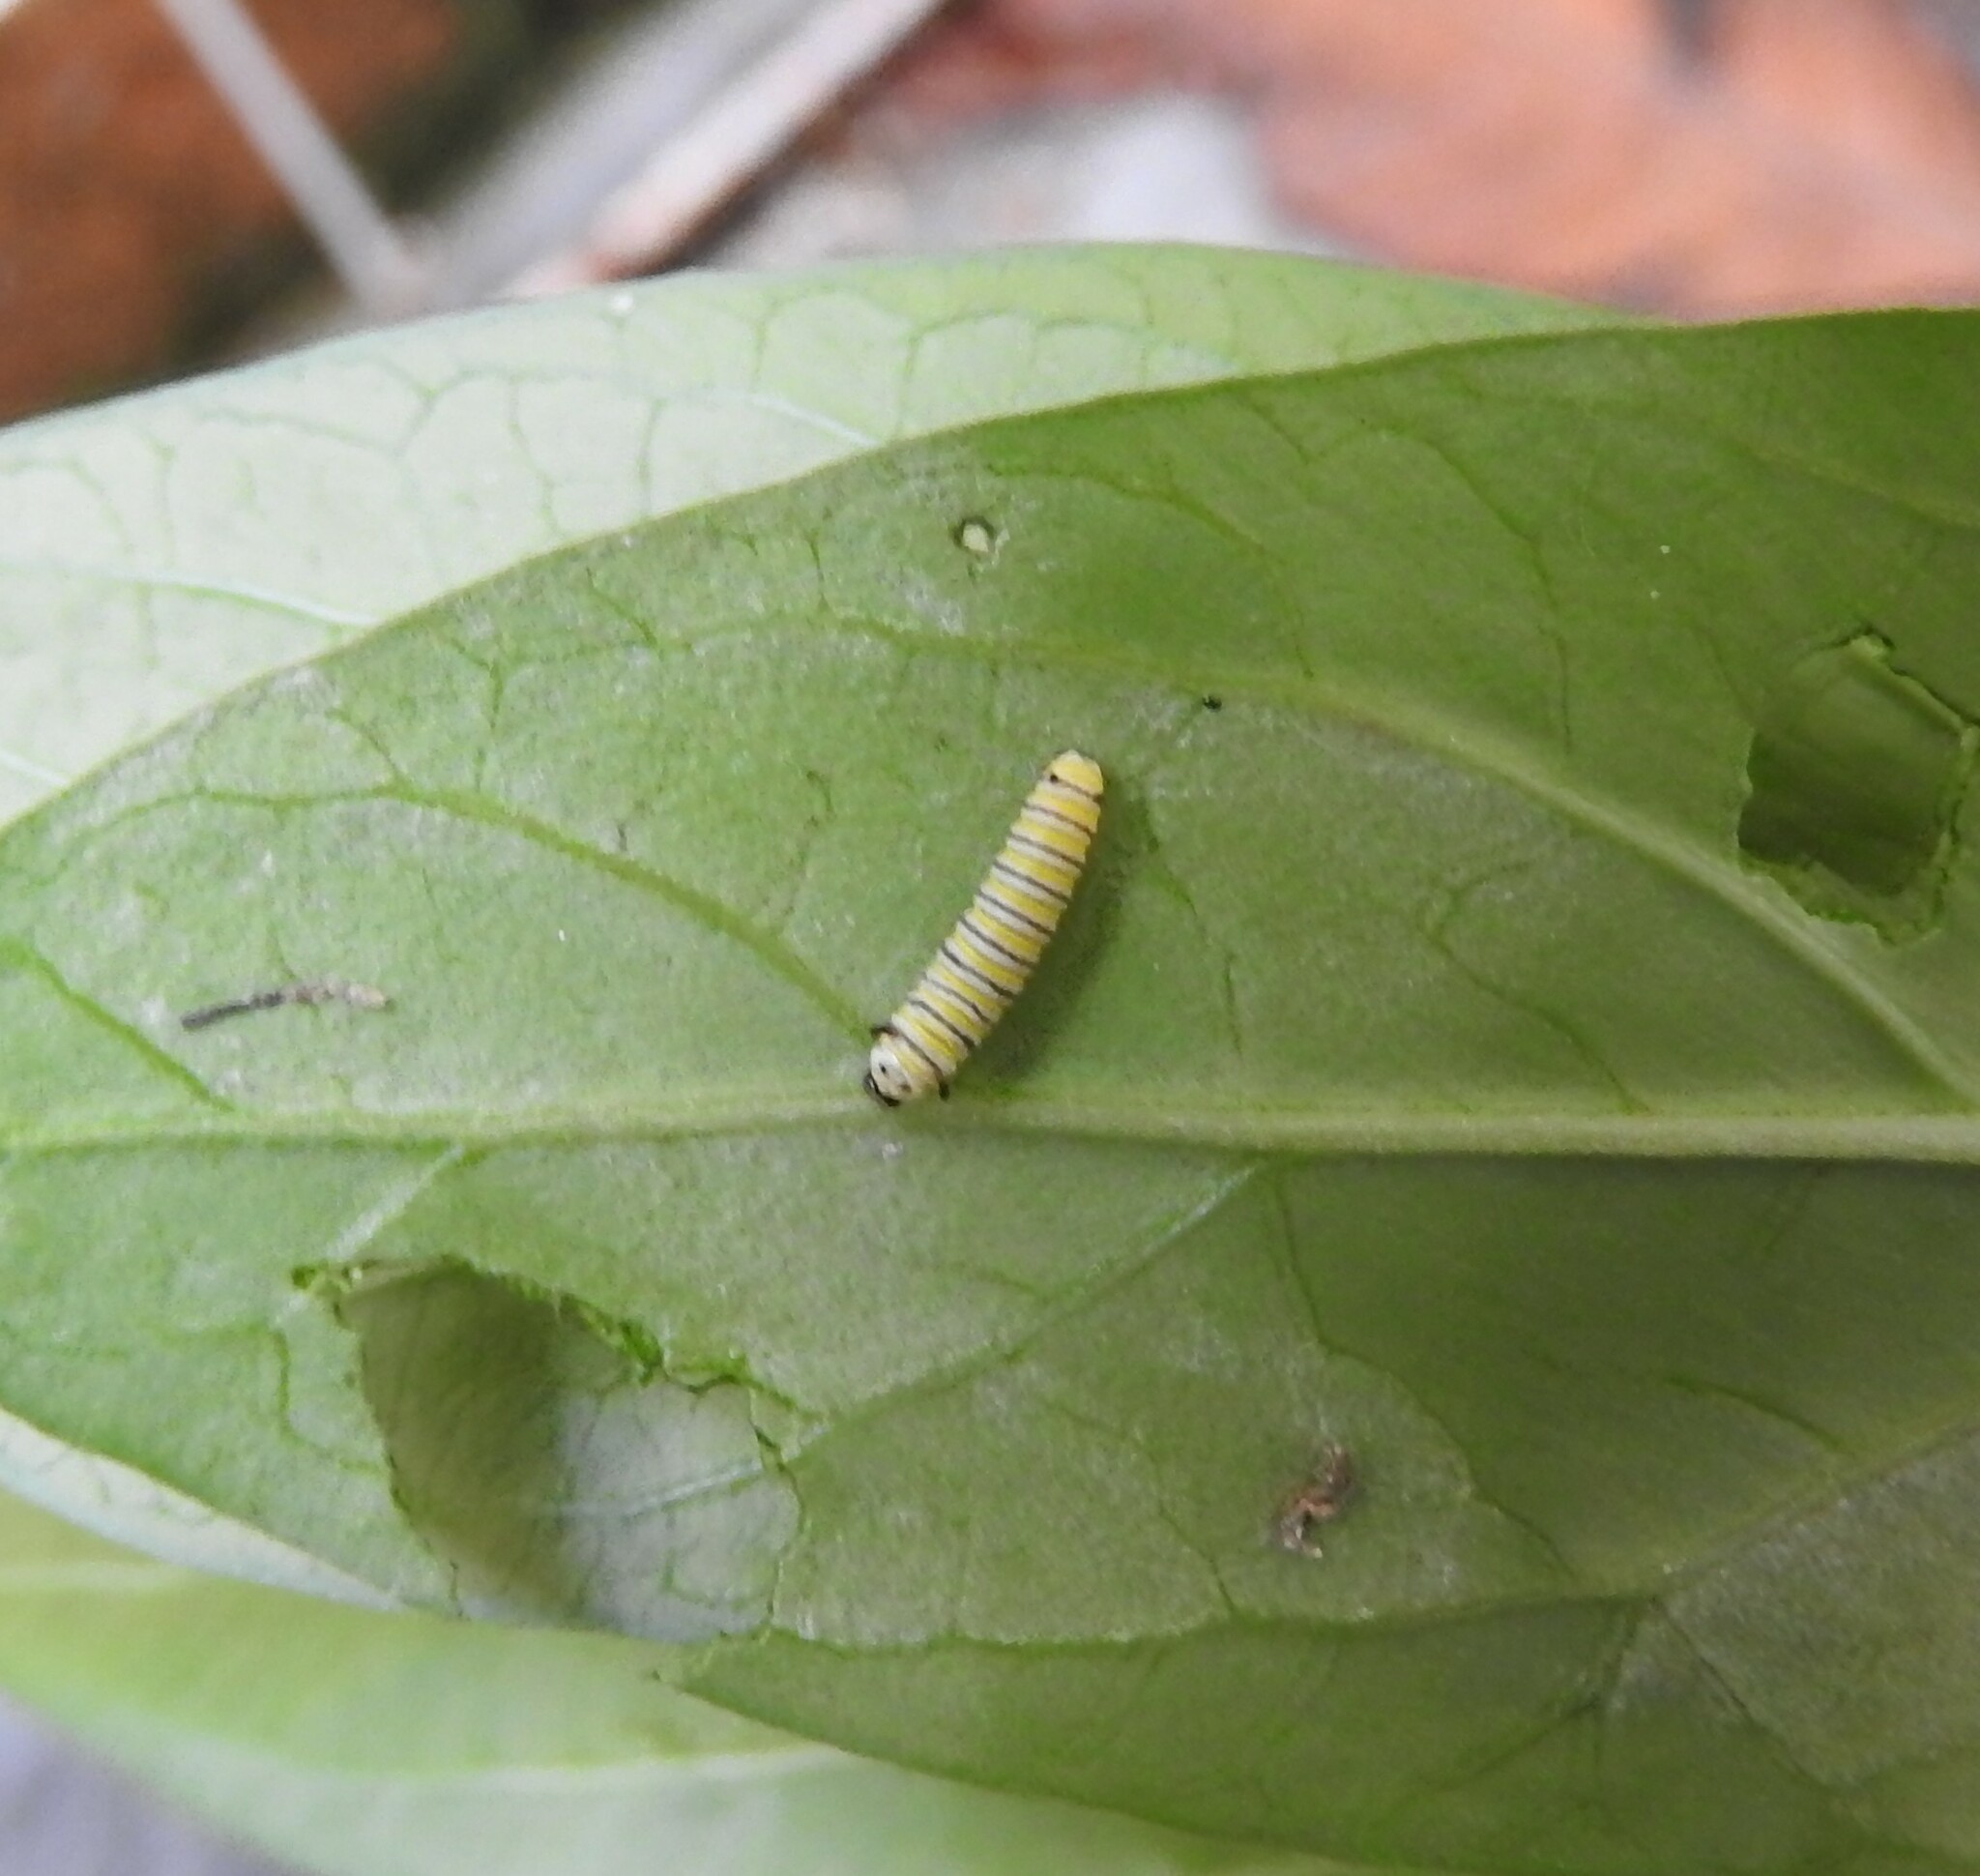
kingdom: Animalia
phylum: Arthropoda
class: Insecta
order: Lepidoptera
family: Nymphalidae
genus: Danaus
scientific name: Danaus plexippus
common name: Monarch
